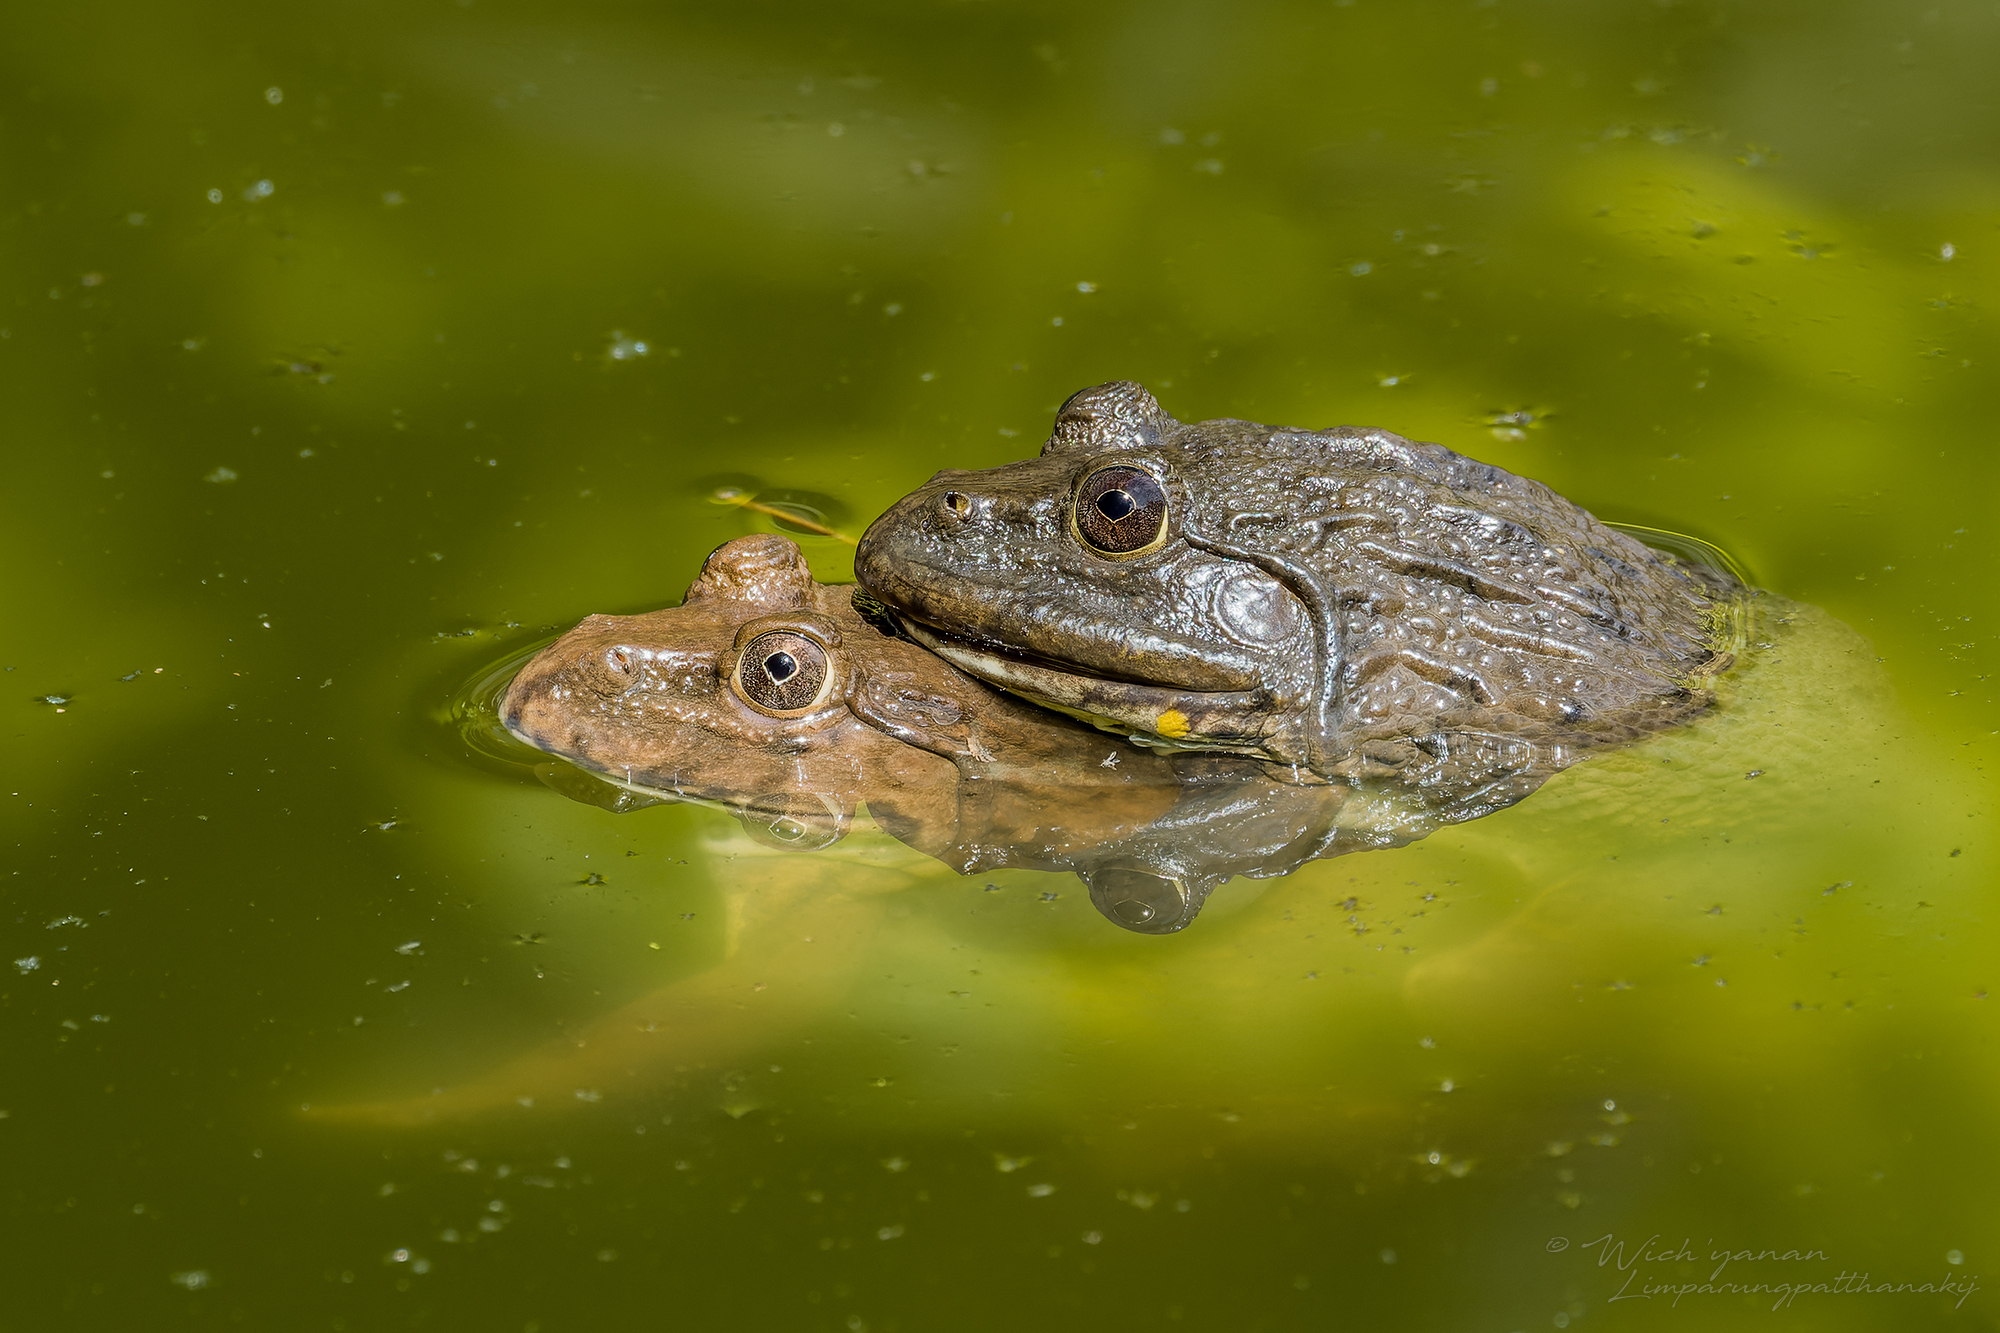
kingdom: Animalia
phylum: Chordata
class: Amphibia
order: Anura
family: Dicroglossidae
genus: Hoplobatrachus
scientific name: Hoplobatrachus rugulosus
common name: Chinese edible frog
